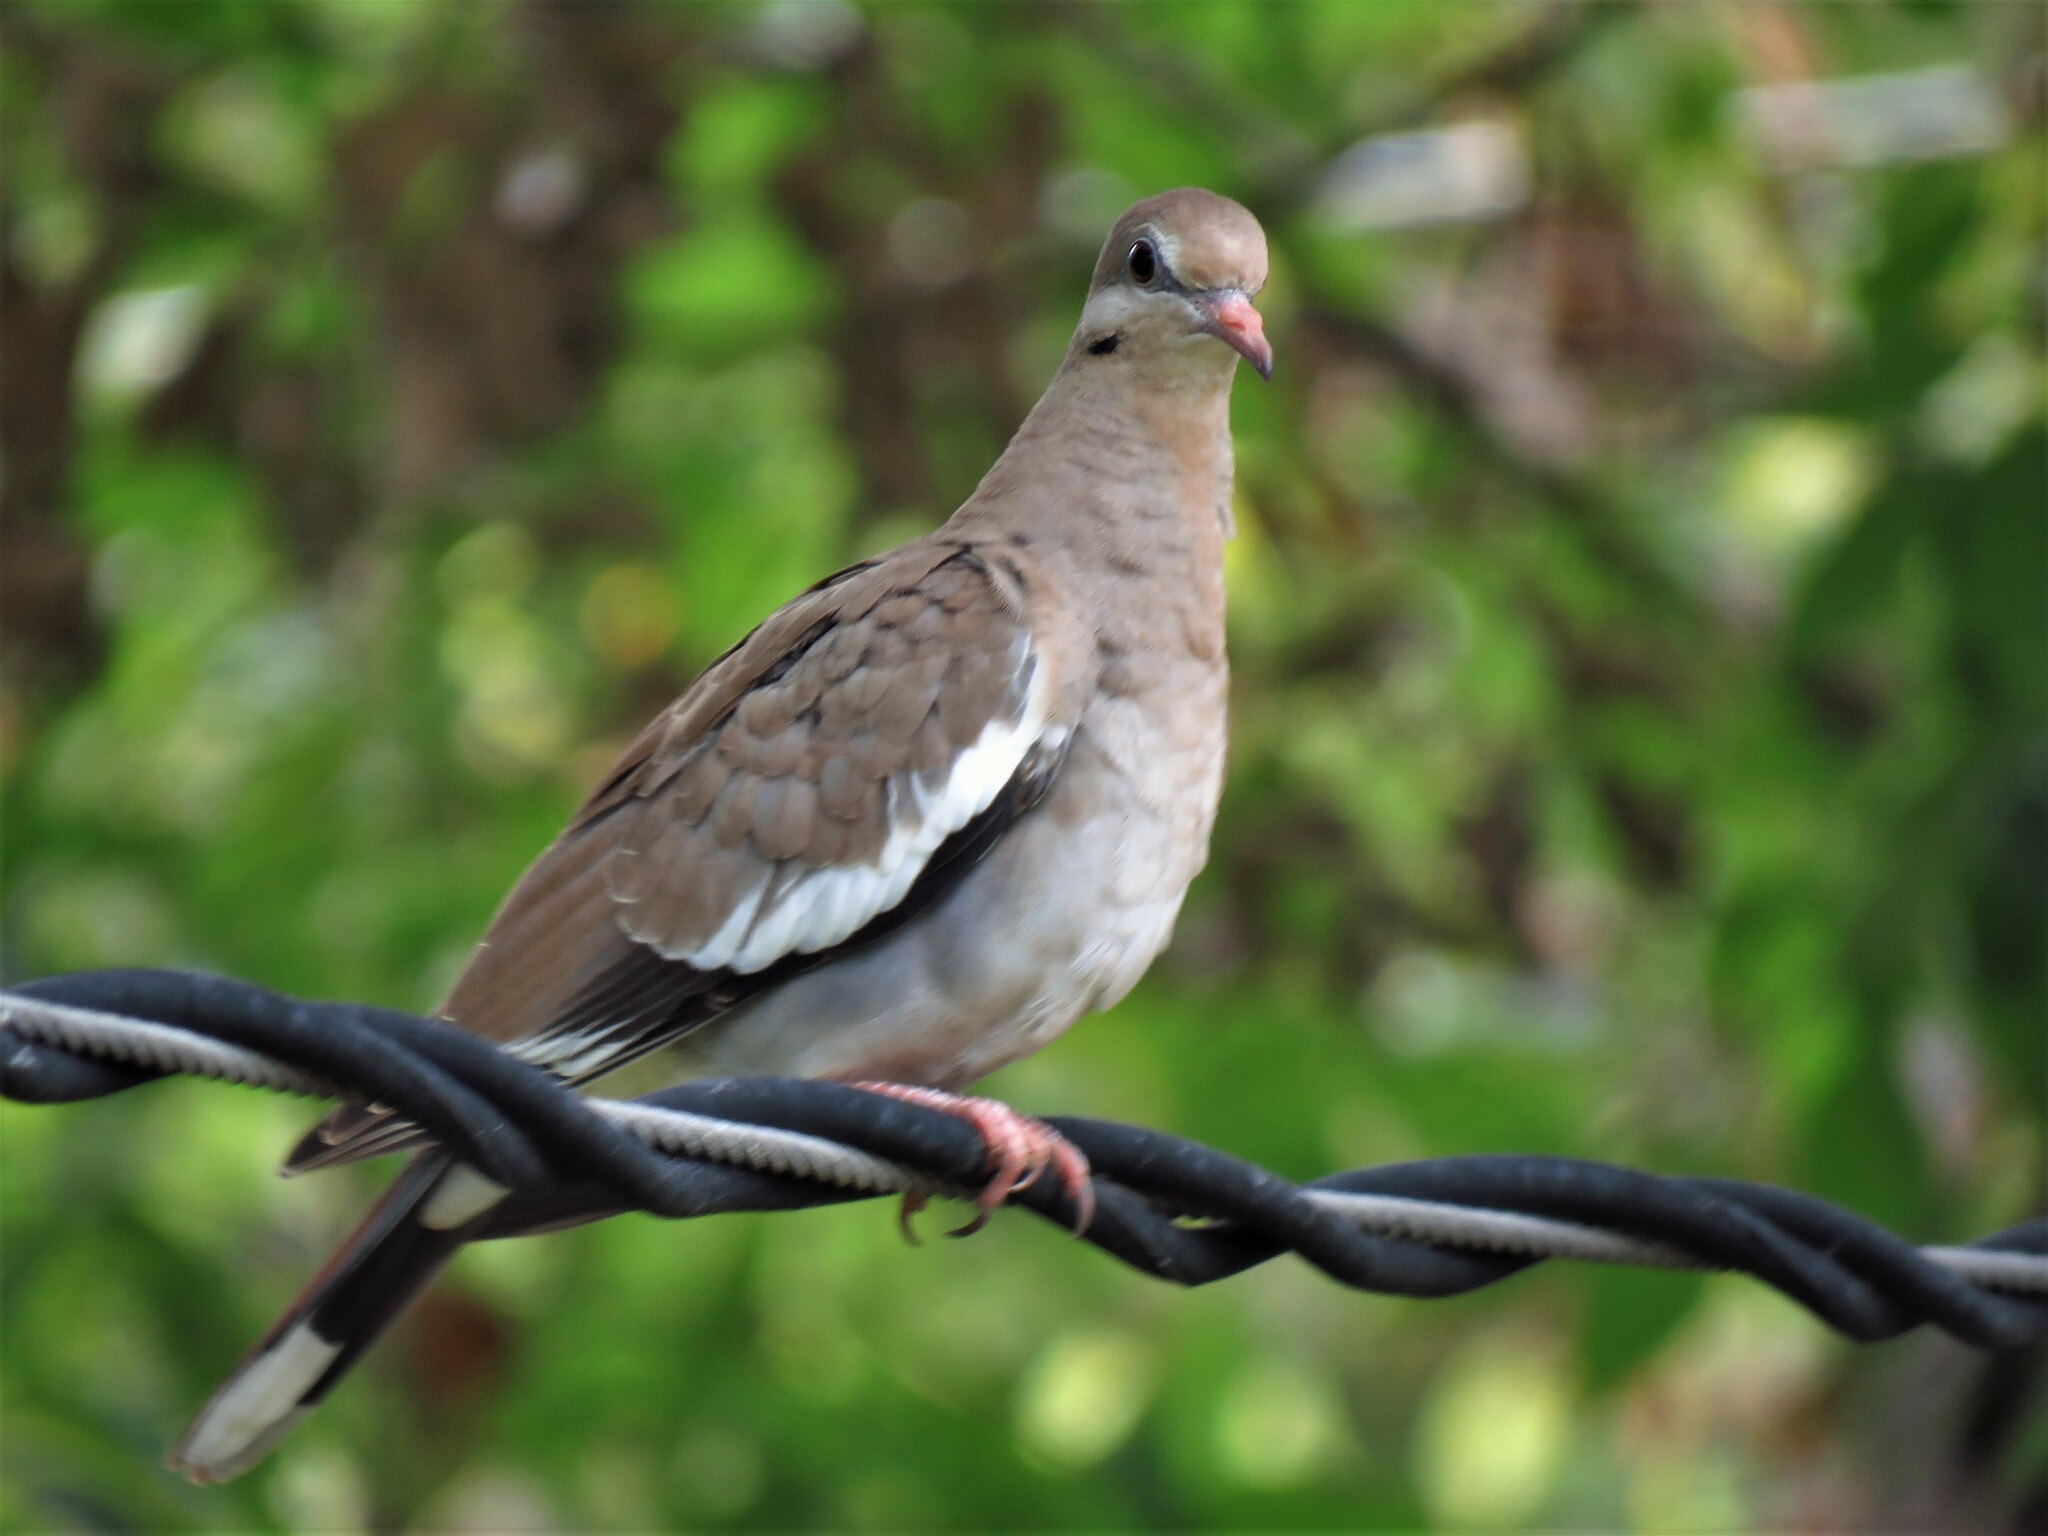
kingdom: Animalia
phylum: Chordata
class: Aves
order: Columbiformes
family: Columbidae
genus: Zenaida
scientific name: Zenaida asiatica
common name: White-winged dove
